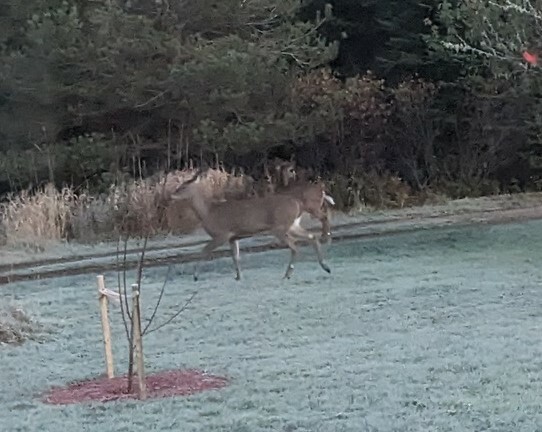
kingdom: Animalia
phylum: Chordata
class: Mammalia
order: Artiodactyla
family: Cervidae
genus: Odocoileus
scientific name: Odocoileus virginianus
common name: White-tailed deer
